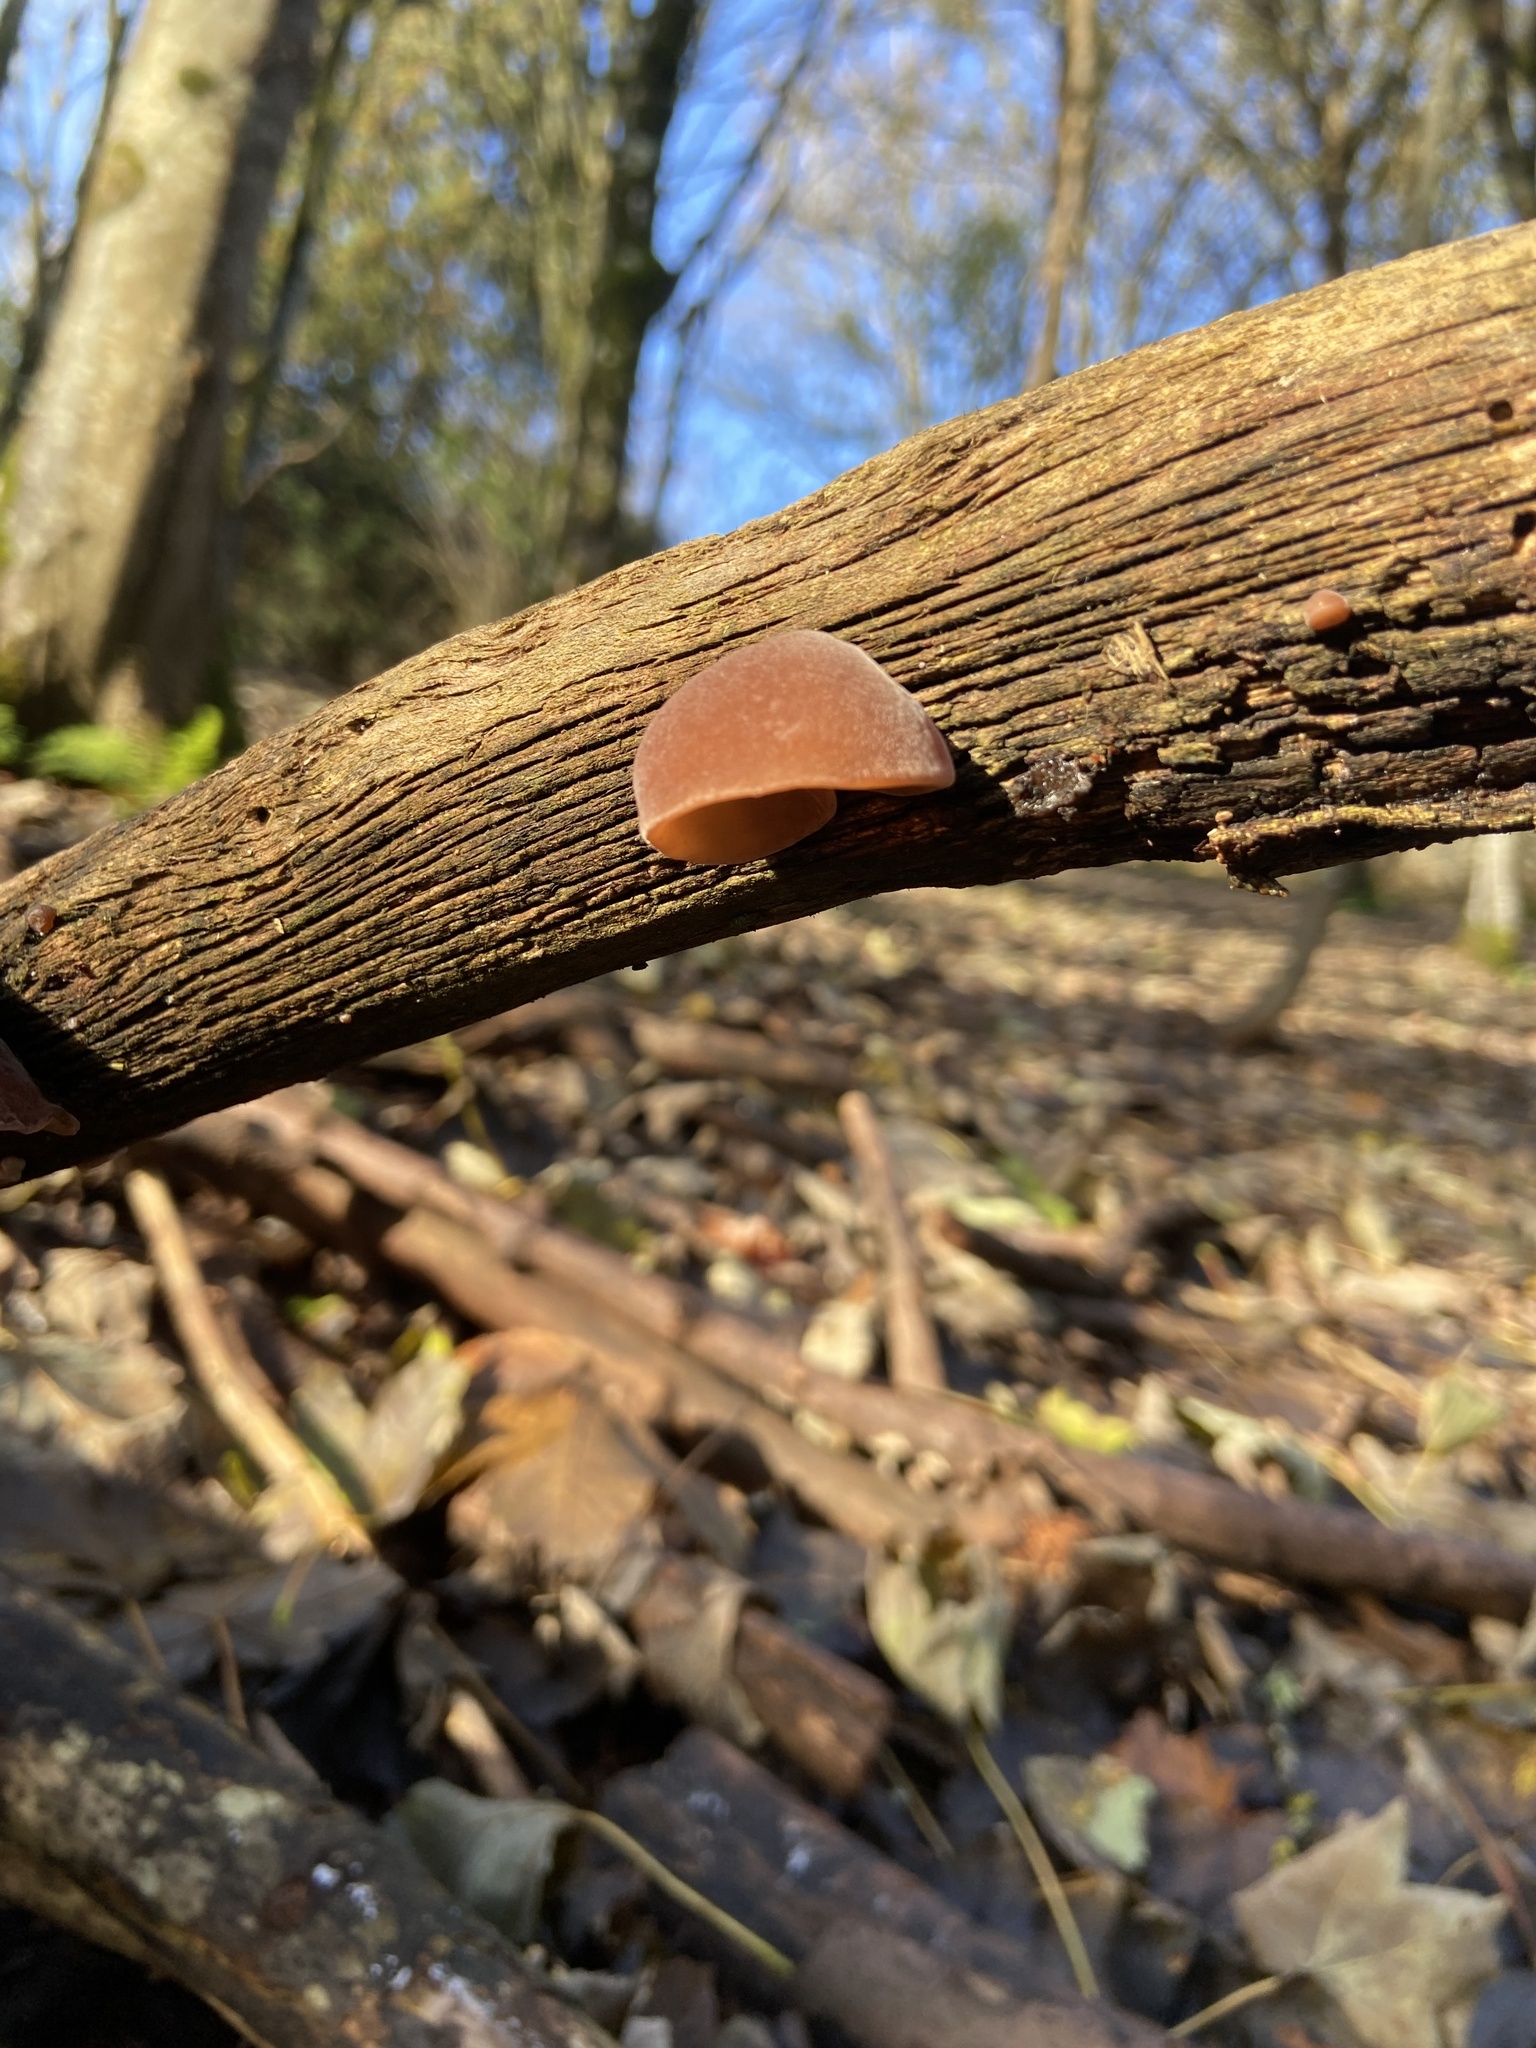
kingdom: Fungi
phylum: Basidiomycota
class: Agaricomycetes
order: Auriculariales
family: Auriculariaceae
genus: Auricularia
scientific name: Auricularia auricula-judae
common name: Jelly ear
